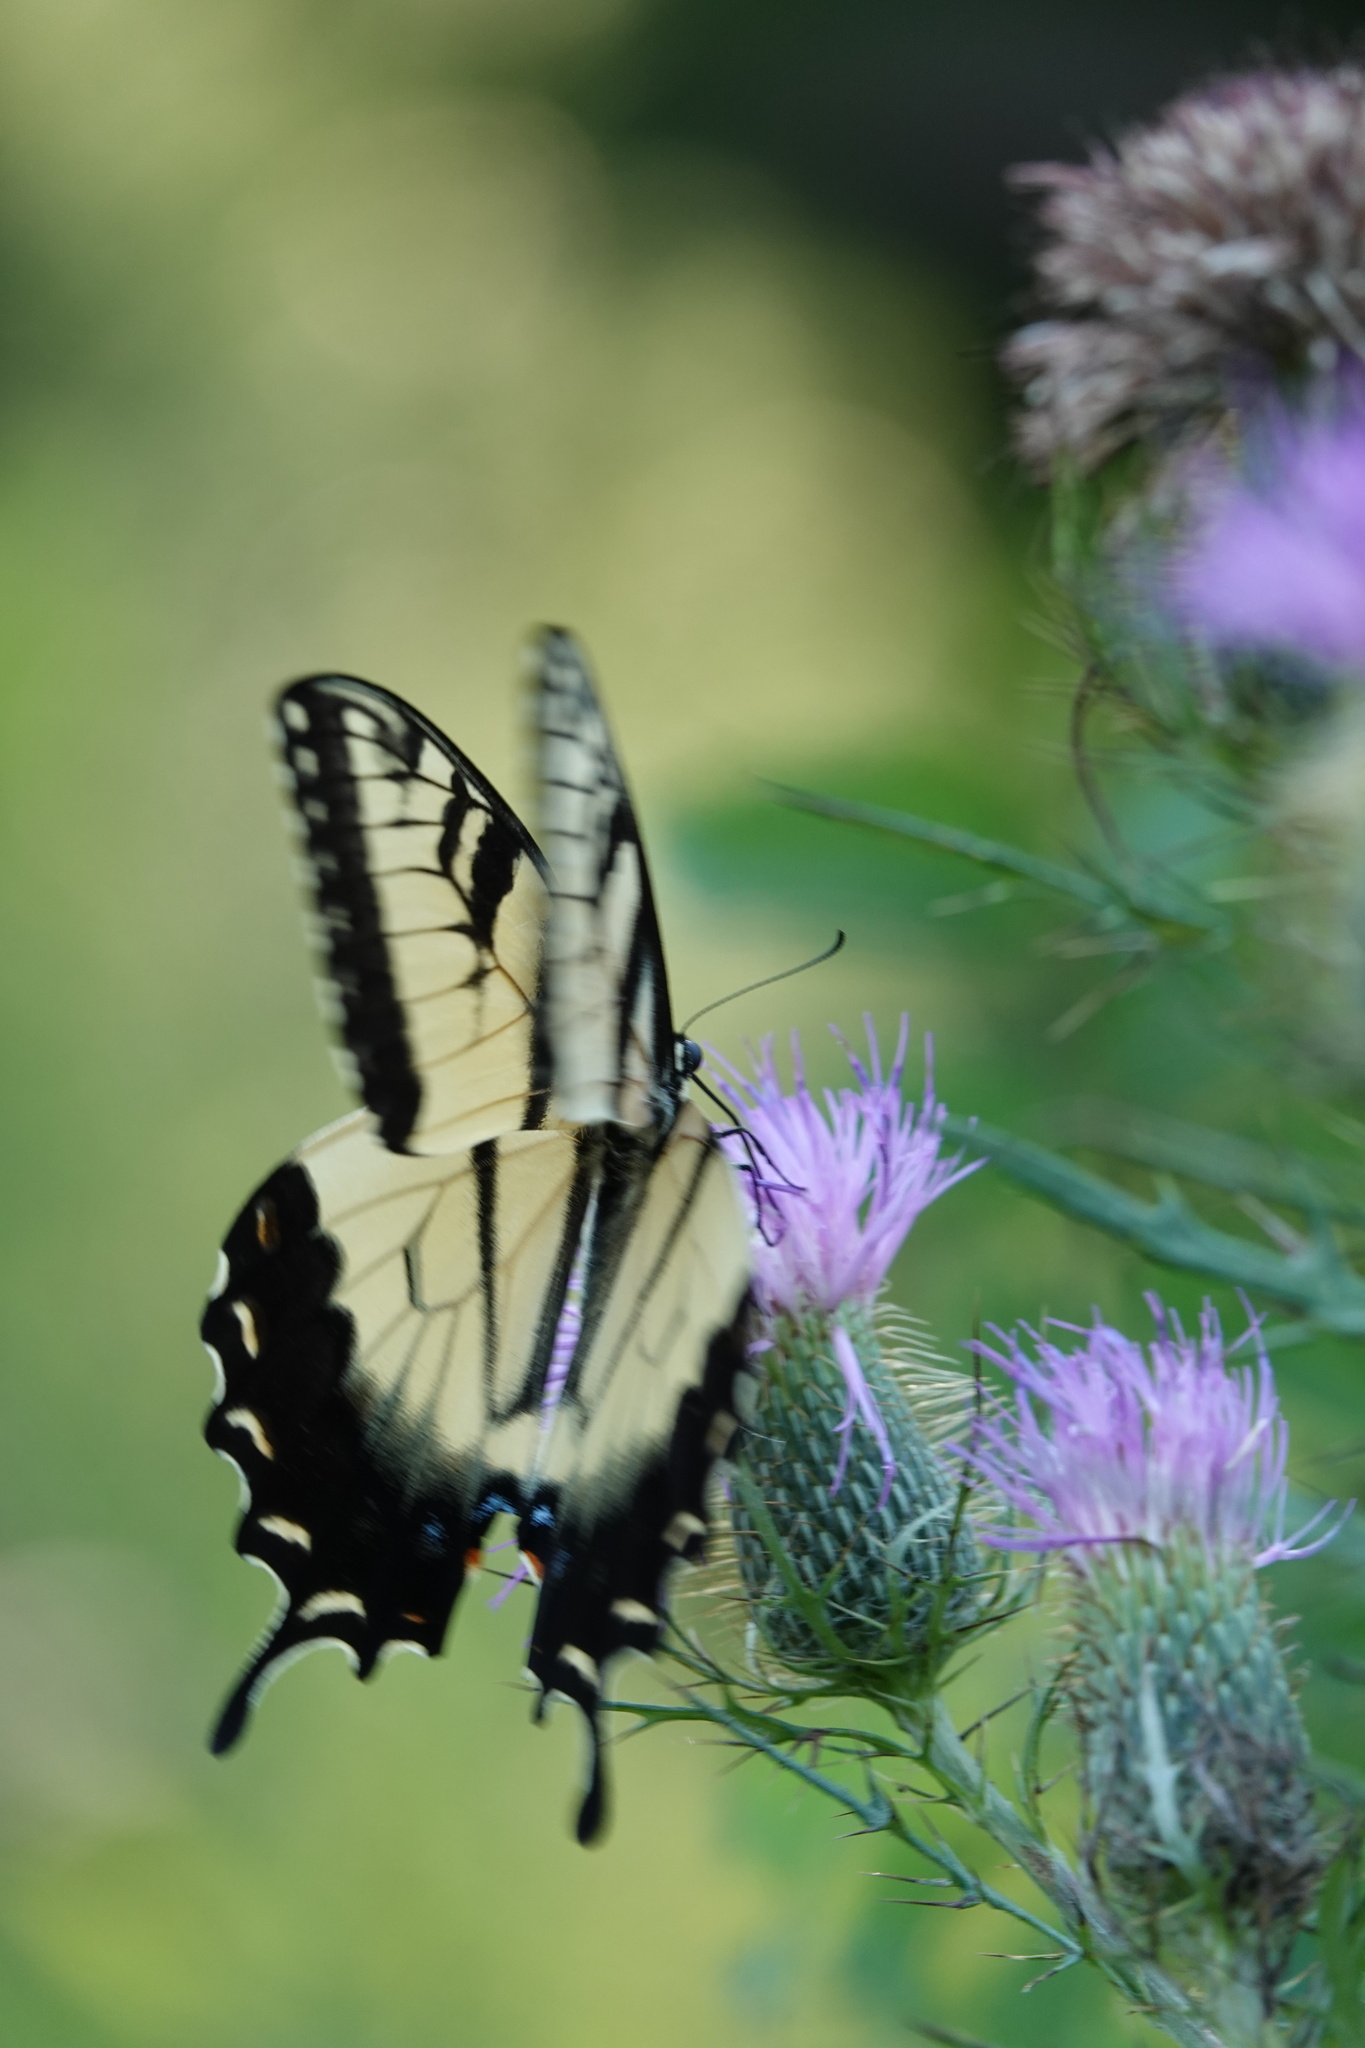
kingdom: Animalia
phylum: Arthropoda
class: Insecta
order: Lepidoptera
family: Papilionidae
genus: Papilio
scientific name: Papilio glaucus
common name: Tiger swallowtail
